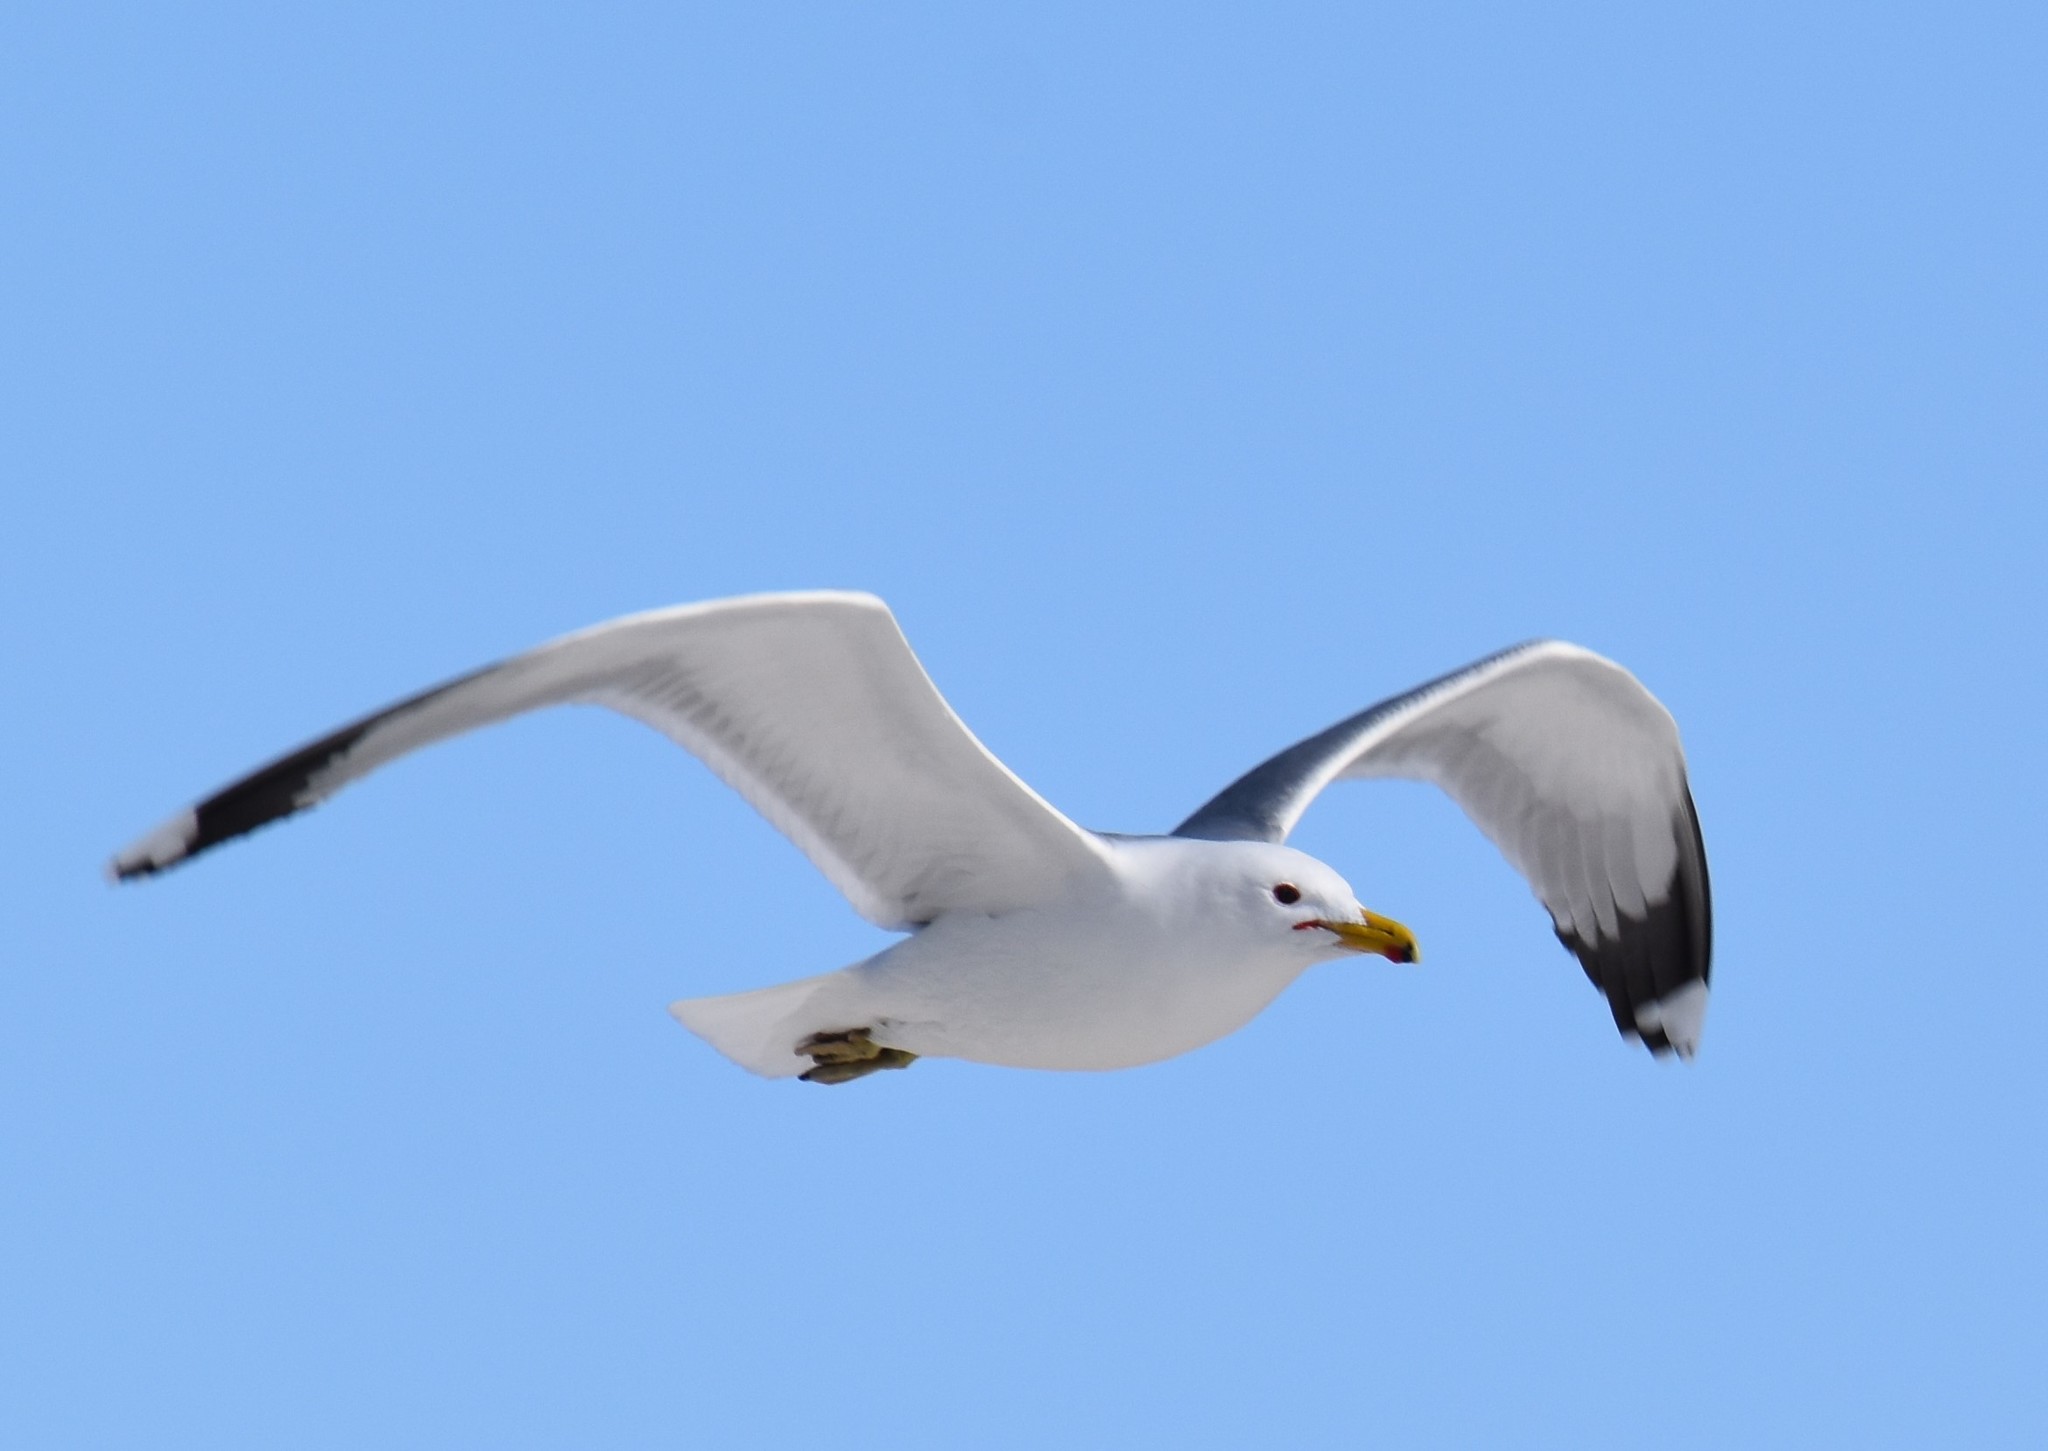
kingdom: Animalia
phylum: Chordata
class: Aves
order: Charadriiformes
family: Laridae
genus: Larus
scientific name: Larus californicus
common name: California gull
